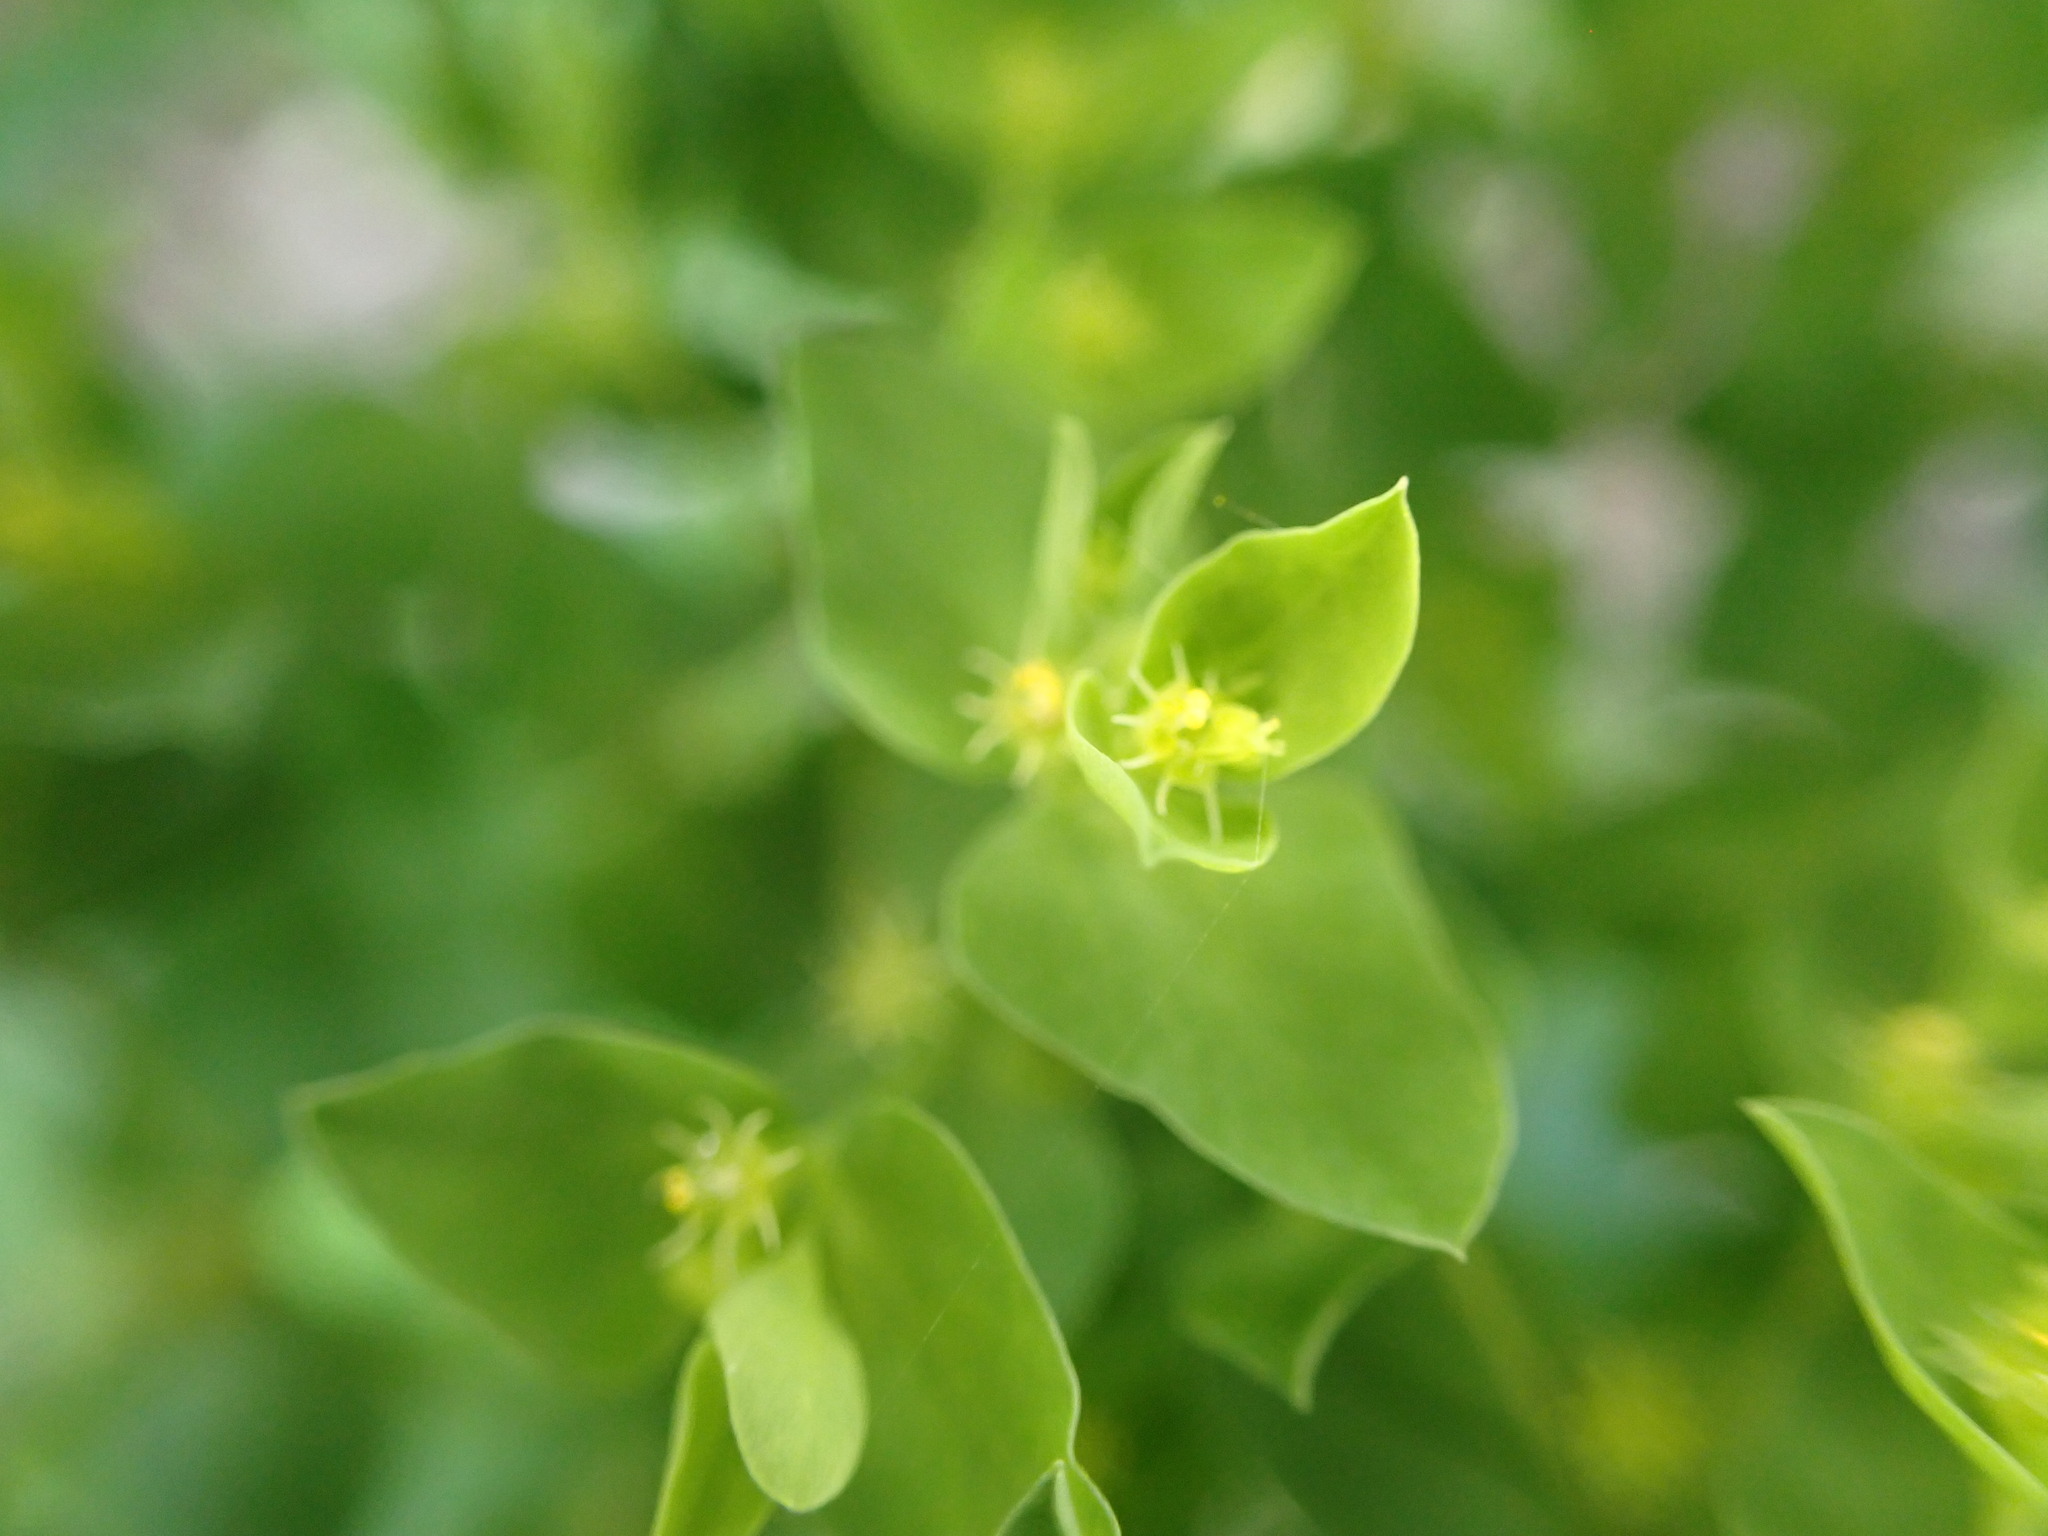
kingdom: Plantae
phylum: Tracheophyta
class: Magnoliopsida
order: Malpighiales
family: Euphorbiaceae
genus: Euphorbia
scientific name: Euphorbia peplus
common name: Petty spurge
